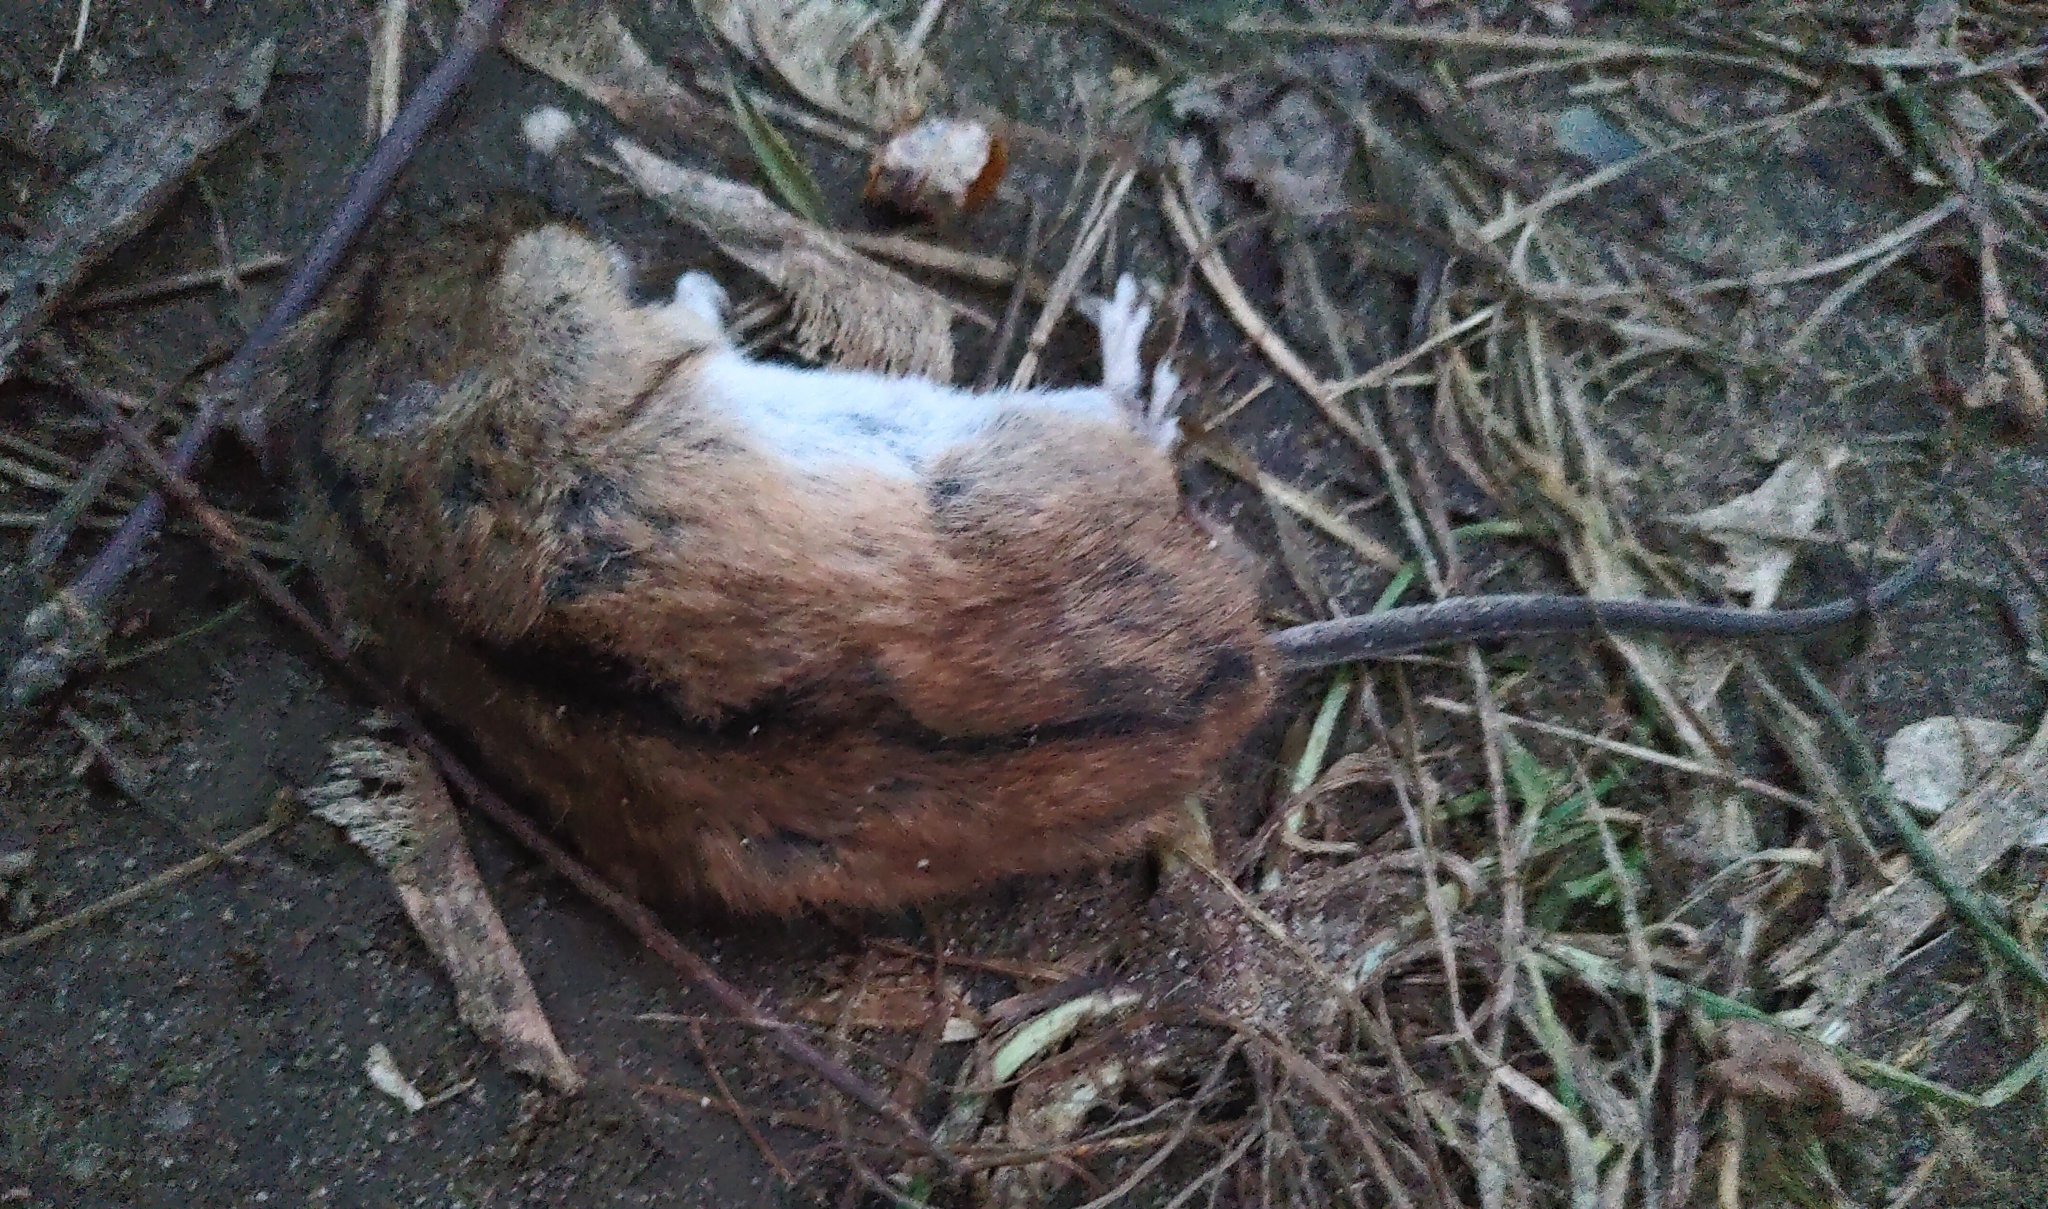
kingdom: Animalia
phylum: Chordata
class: Mammalia
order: Rodentia
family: Muridae
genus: Apodemus
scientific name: Apodemus agrarius
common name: Striped field mouse
